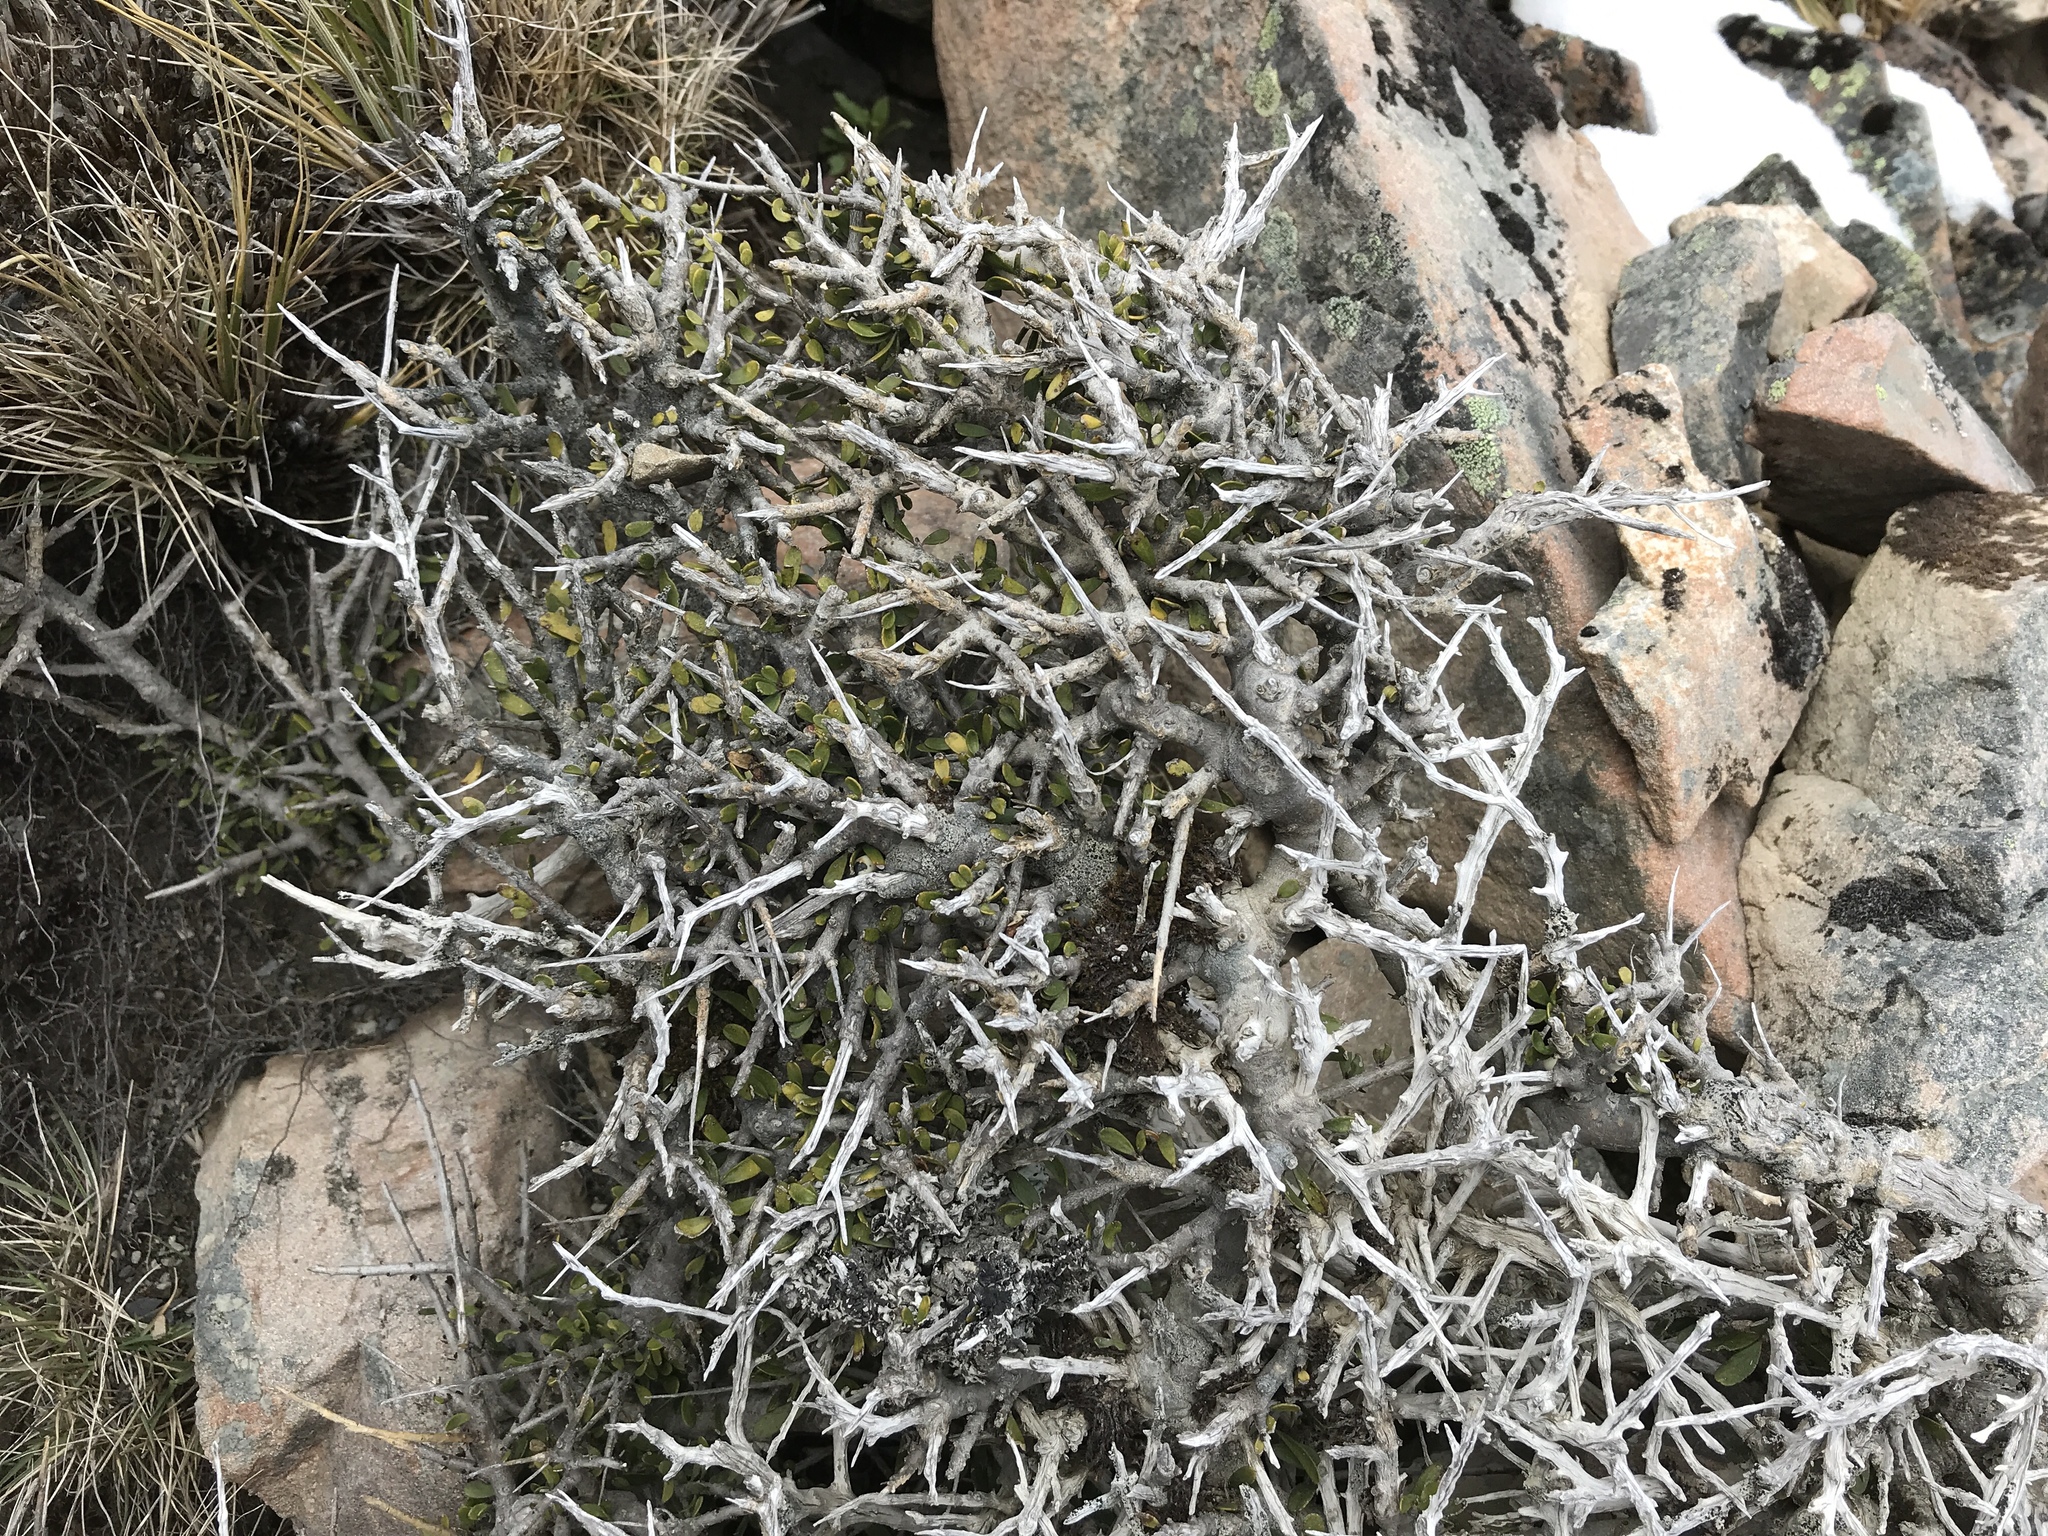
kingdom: Plantae
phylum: Tracheophyta
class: Magnoliopsida
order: Malpighiales
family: Violaceae
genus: Melicytus
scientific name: Melicytus alpinus
